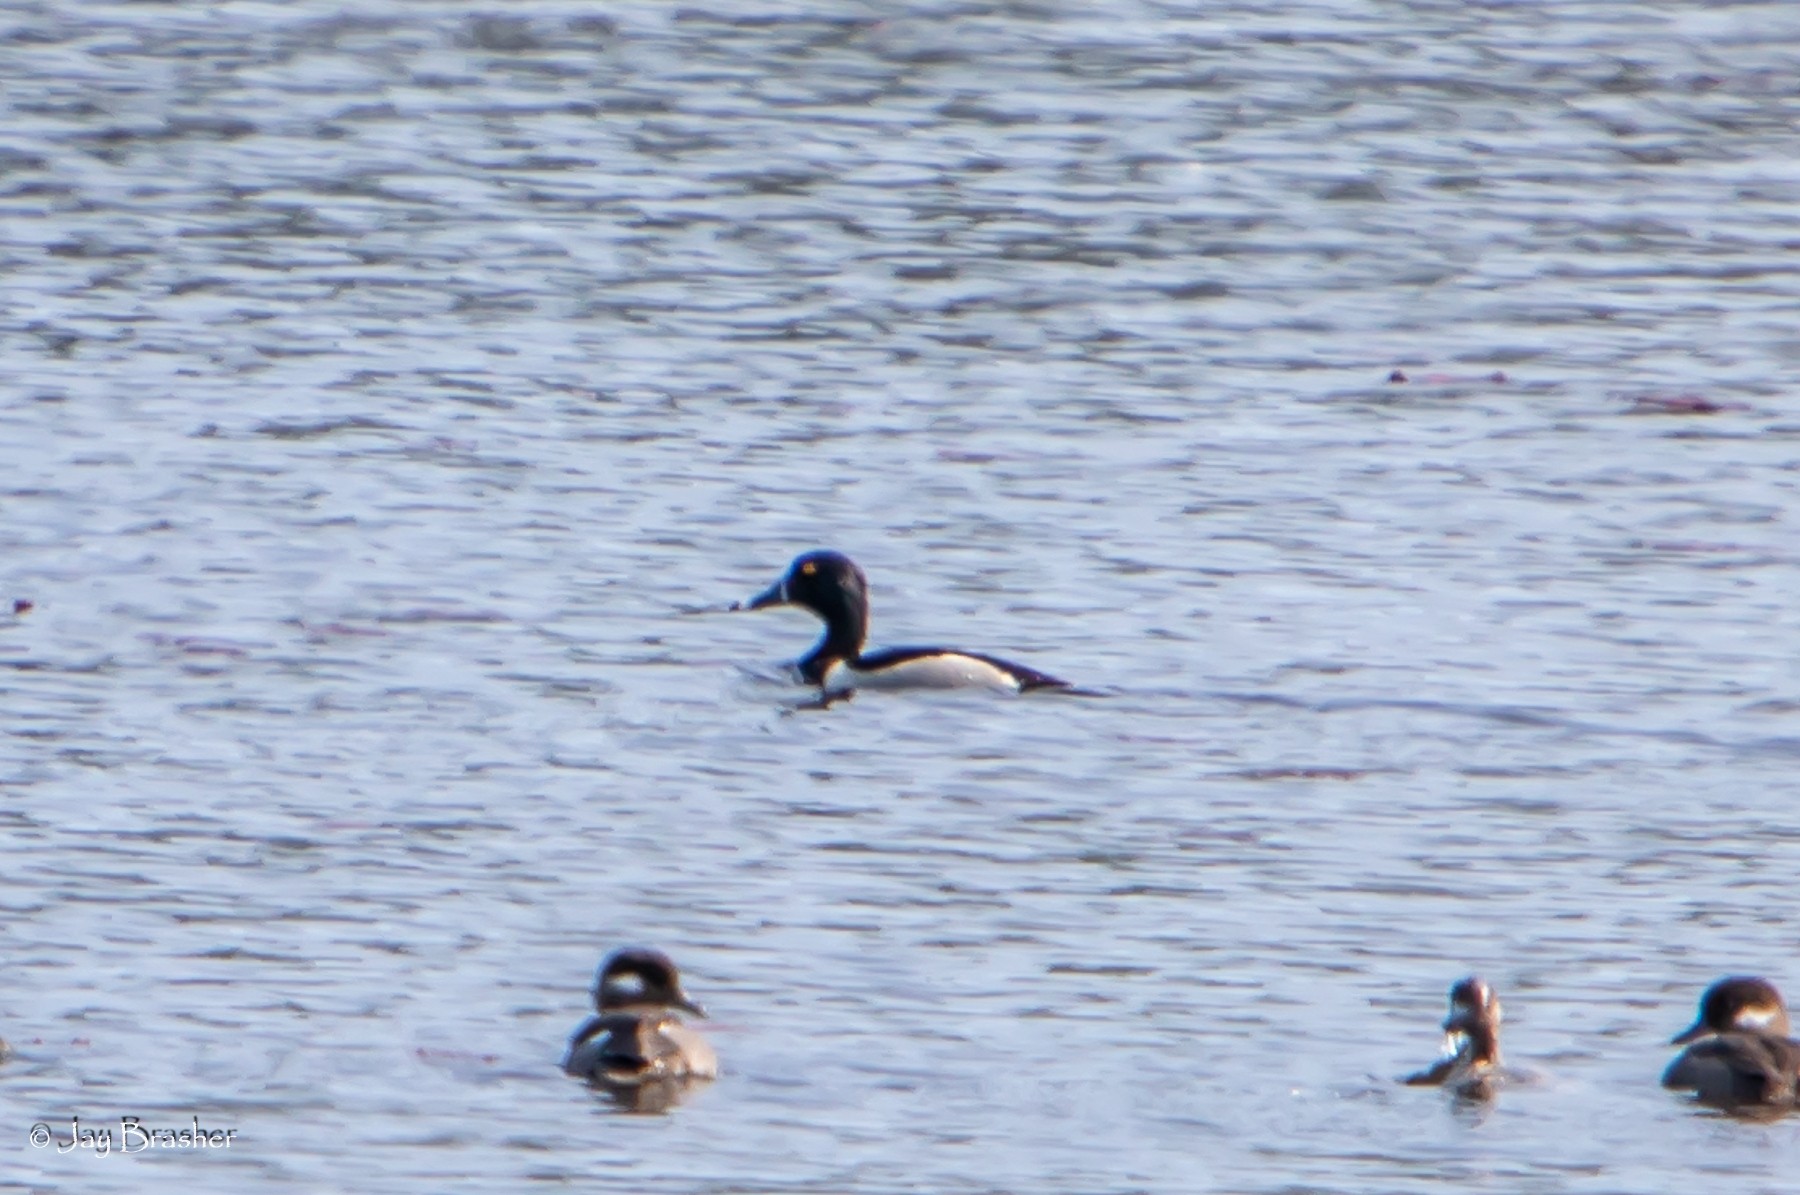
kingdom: Animalia
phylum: Chordata
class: Aves
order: Anseriformes
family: Anatidae
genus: Aythya
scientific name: Aythya collaris
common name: Ring-necked duck
